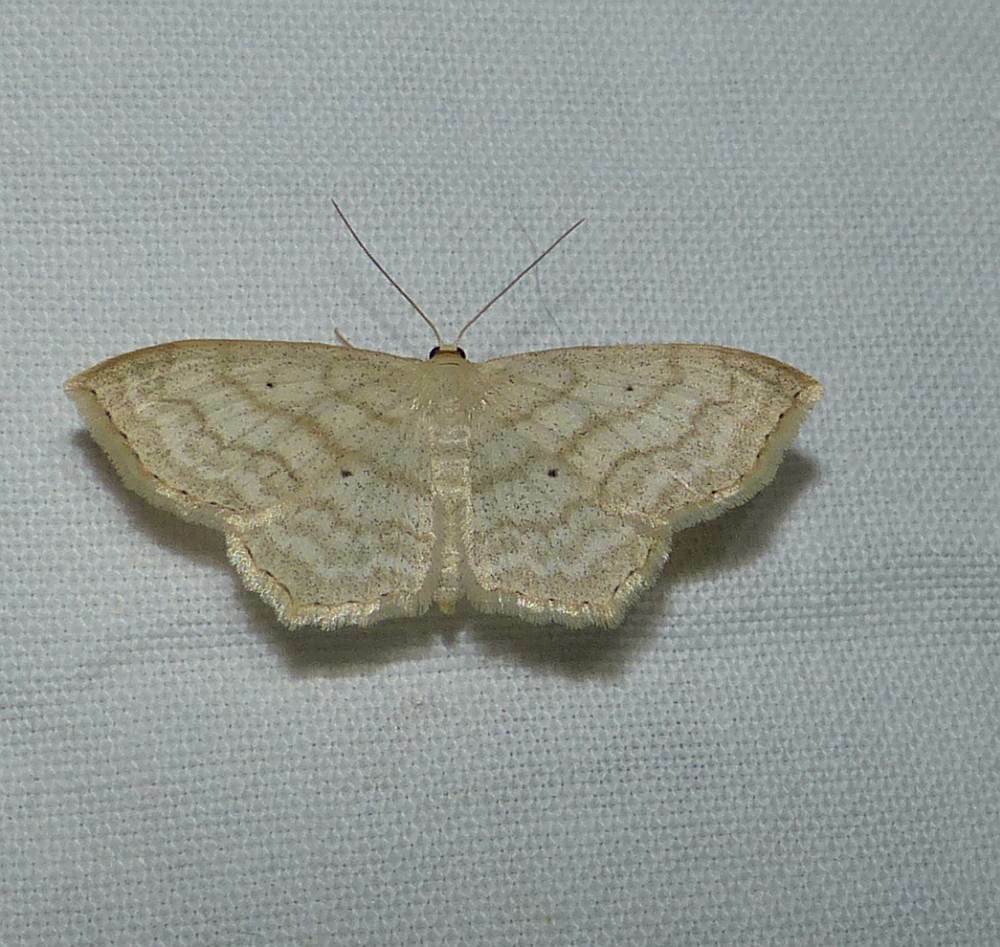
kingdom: Animalia
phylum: Arthropoda
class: Insecta
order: Lepidoptera
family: Geometridae
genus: Scopula
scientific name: Scopula limboundata
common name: Large lace border
